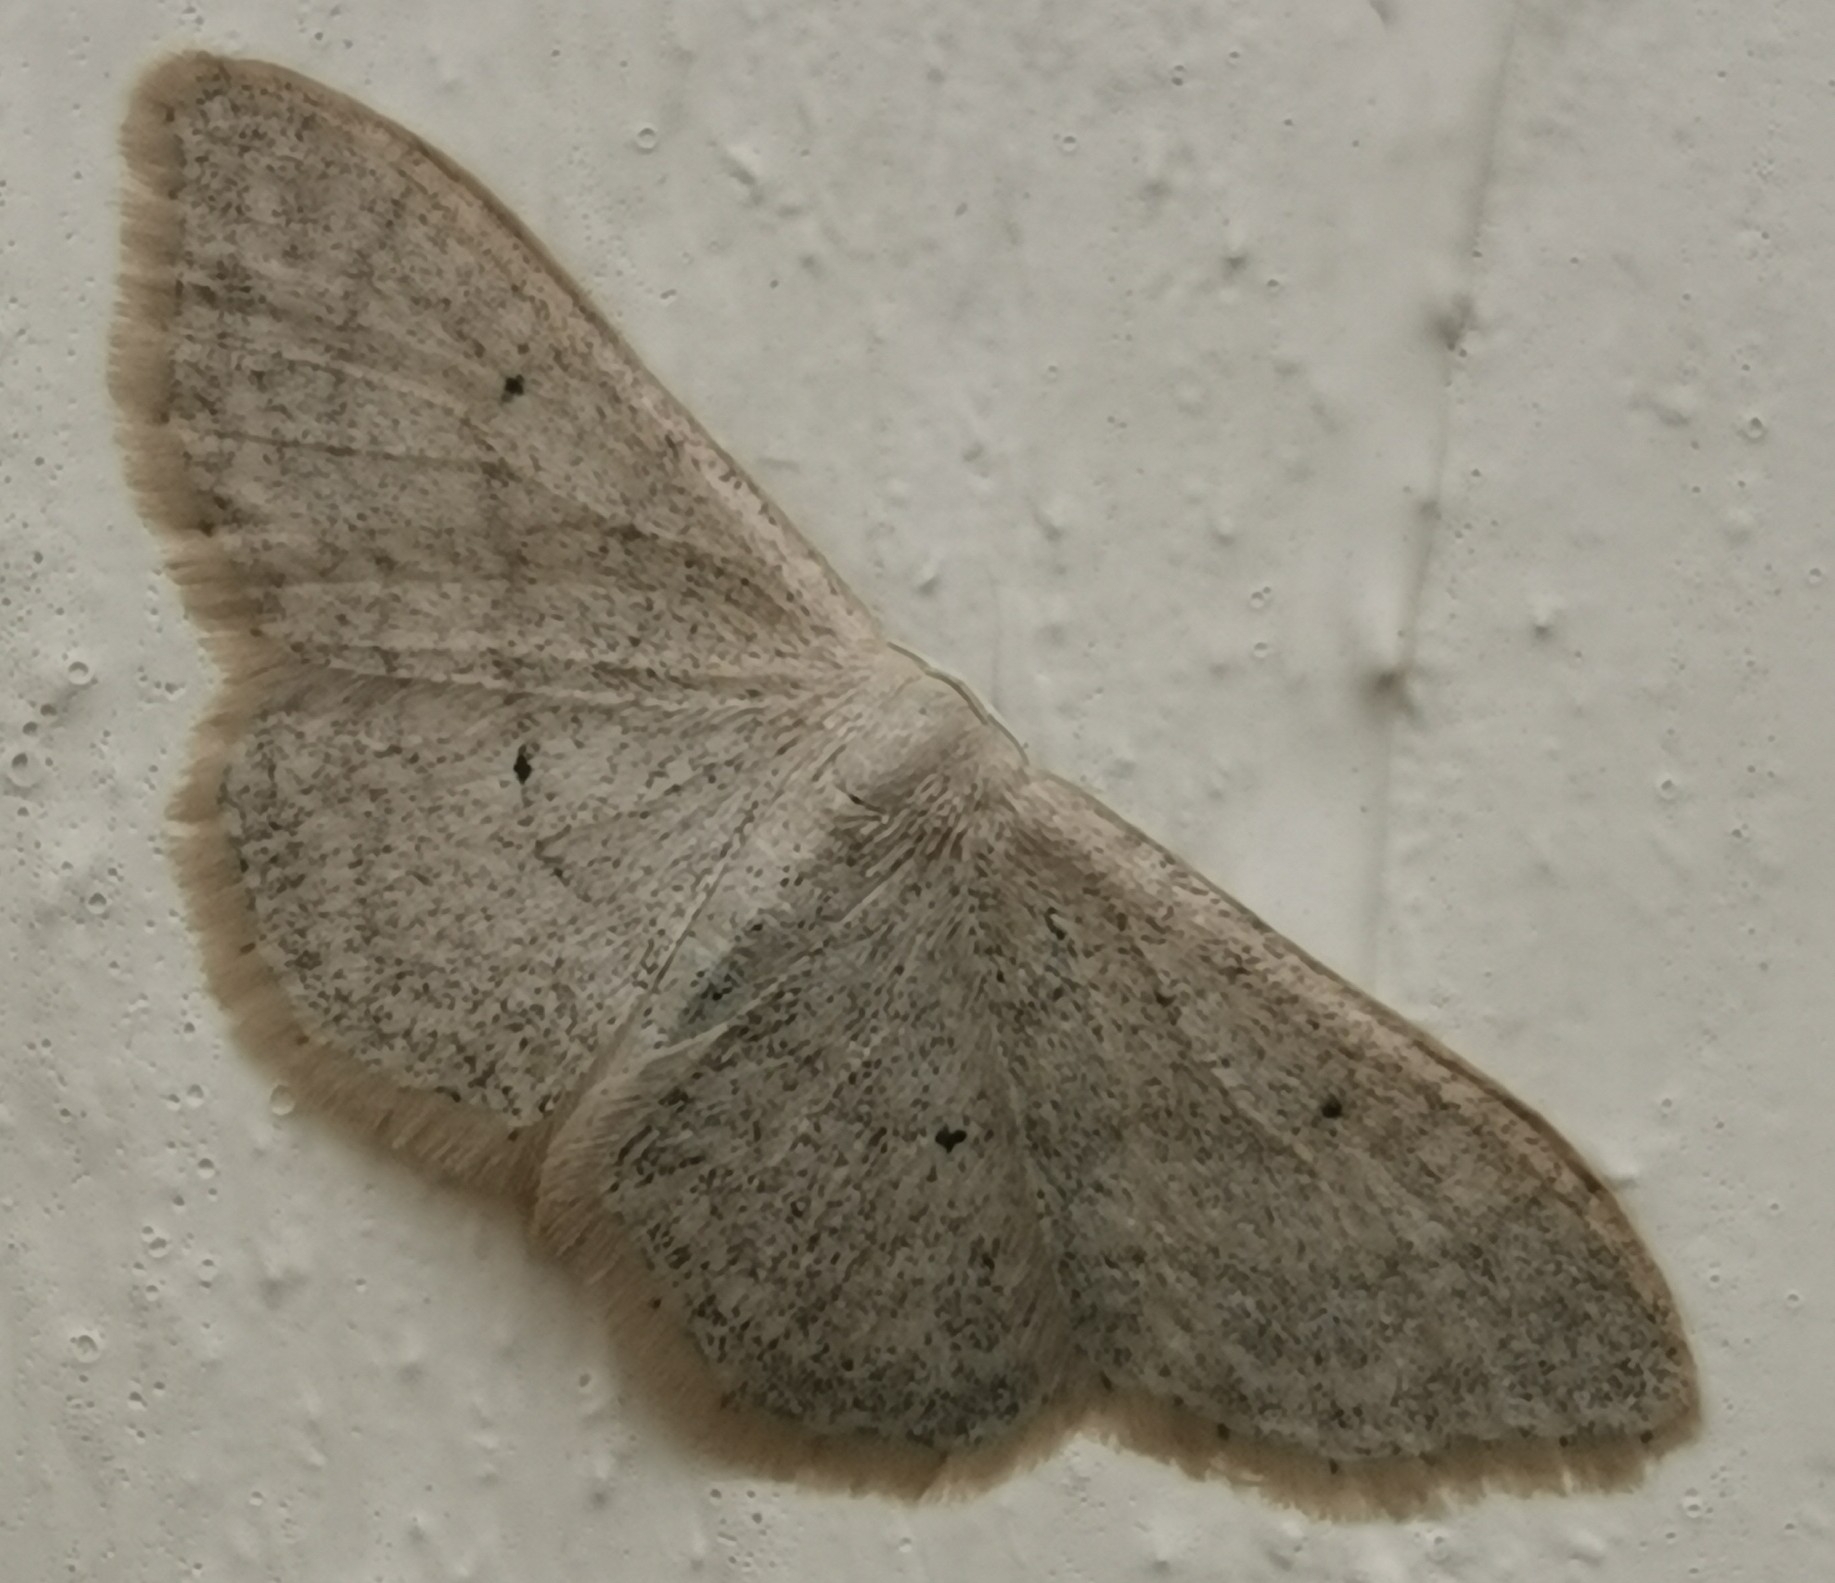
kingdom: Animalia
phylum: Arthropoda
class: Insecta
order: Lepidoptera
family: Geometridae
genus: Idaea
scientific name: Idaea straminata
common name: Plain wave
